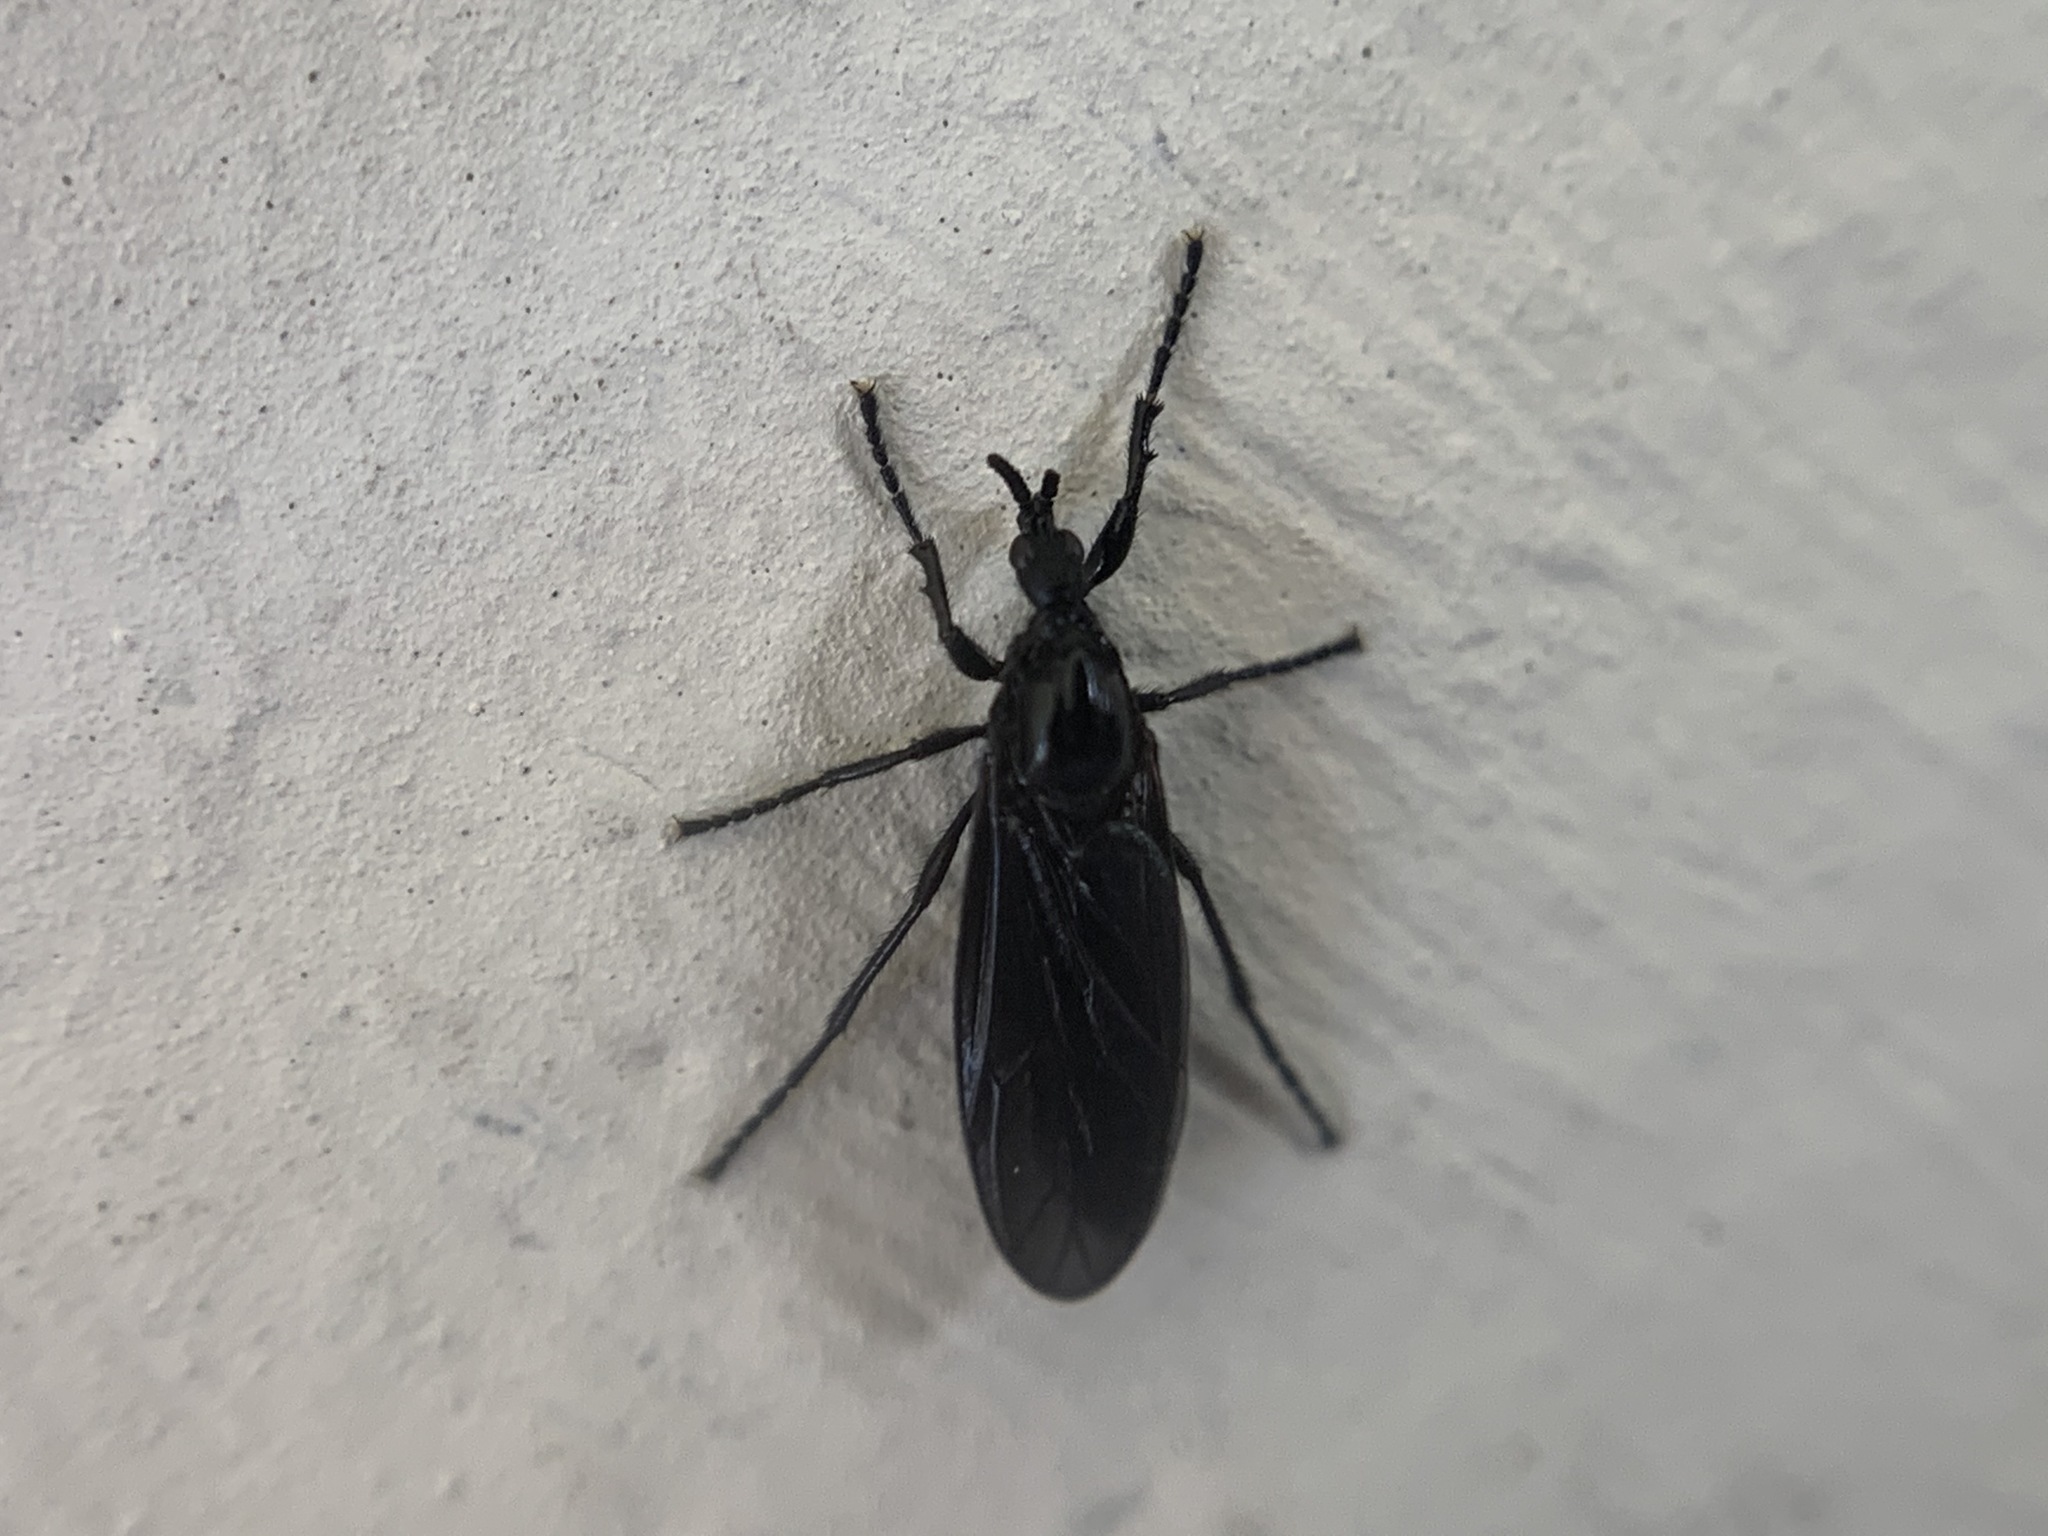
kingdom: Animalia
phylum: Arthropoda
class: Insecta
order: Diptera
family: Bibionidae
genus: Dilophus
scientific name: Dilophus orbatus
